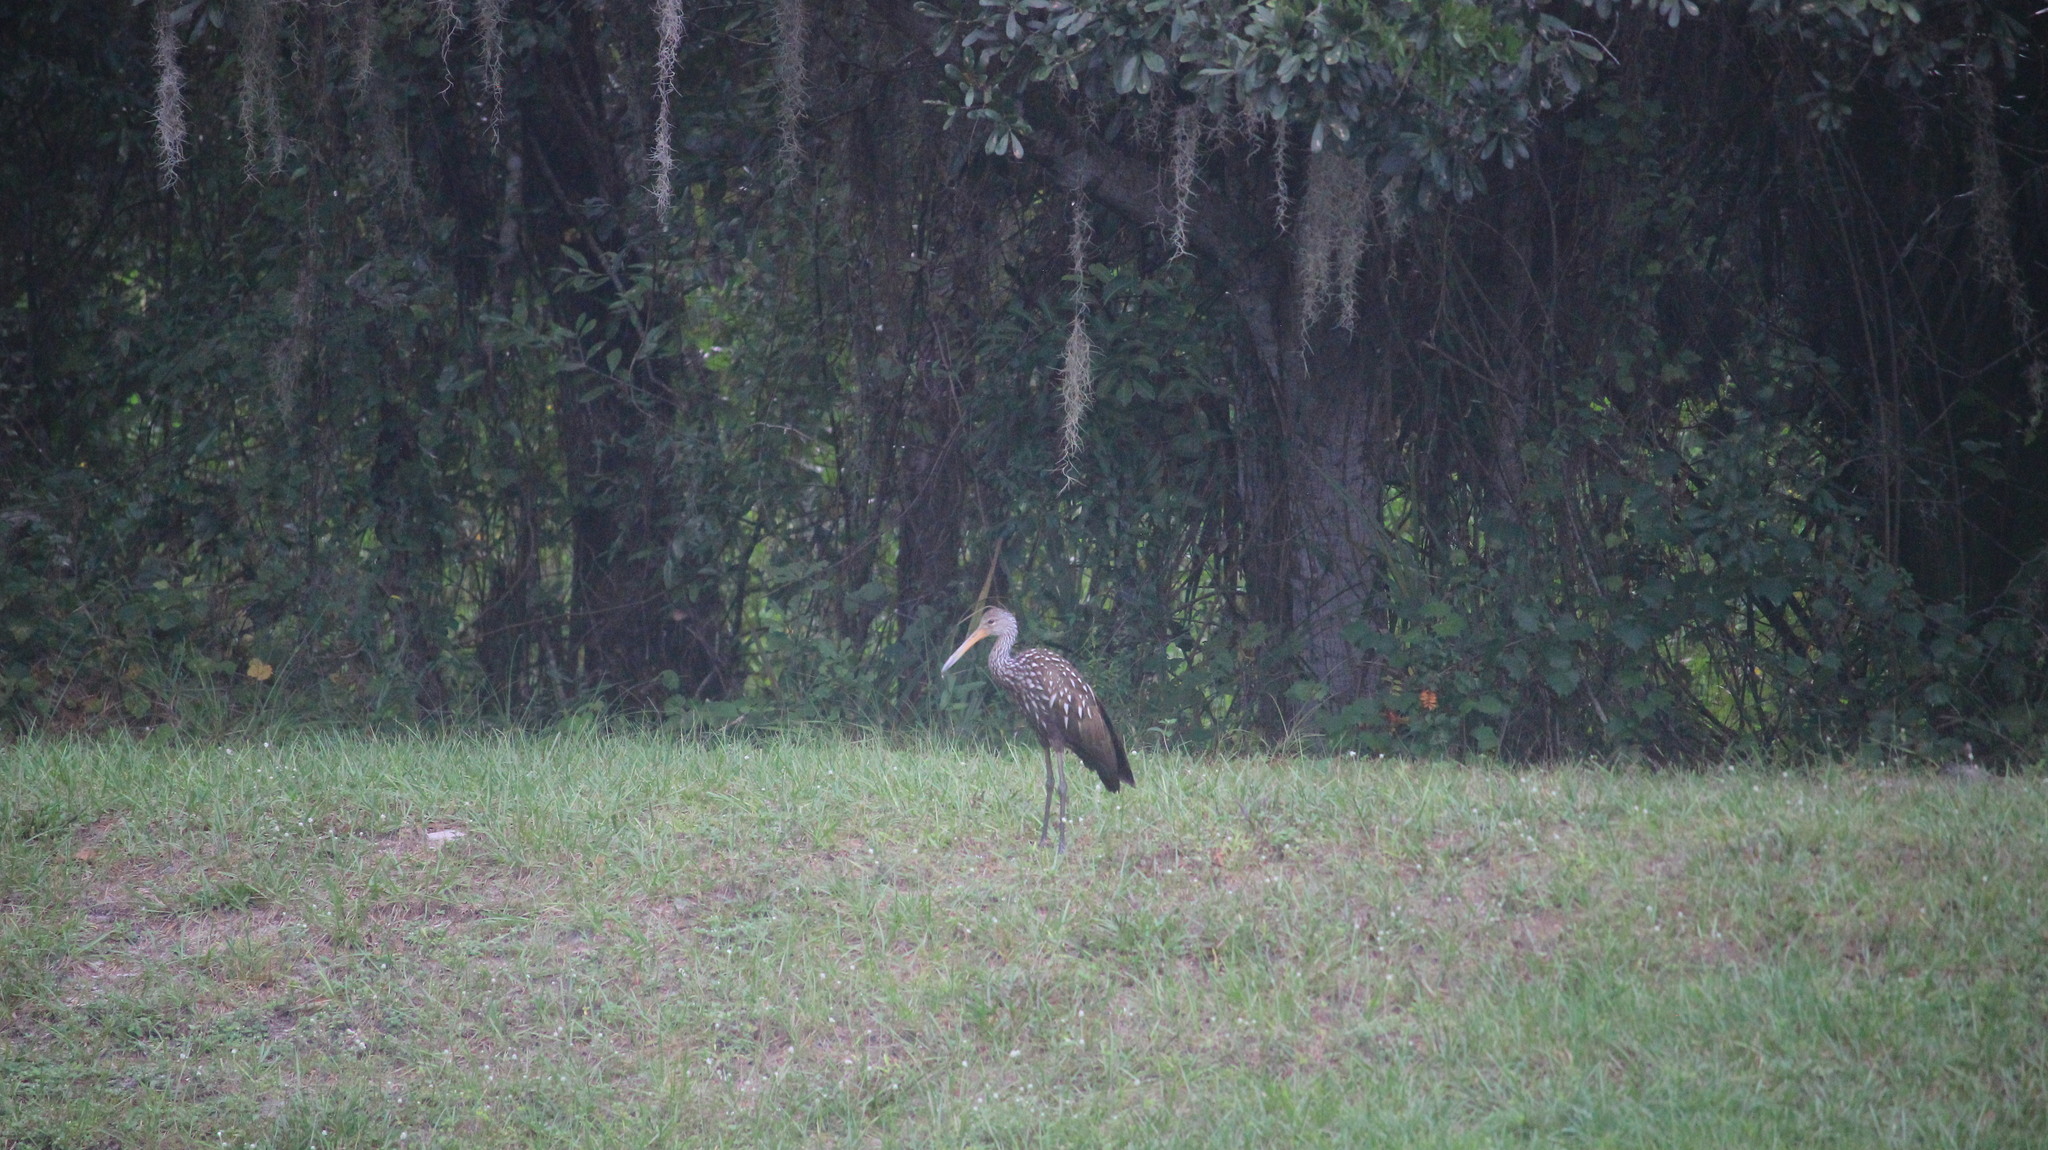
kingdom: Animalia
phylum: Chordata
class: Aves
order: Gruiformes
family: Aramidae
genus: Aramus
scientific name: Aramus guarauna
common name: Limpkin
